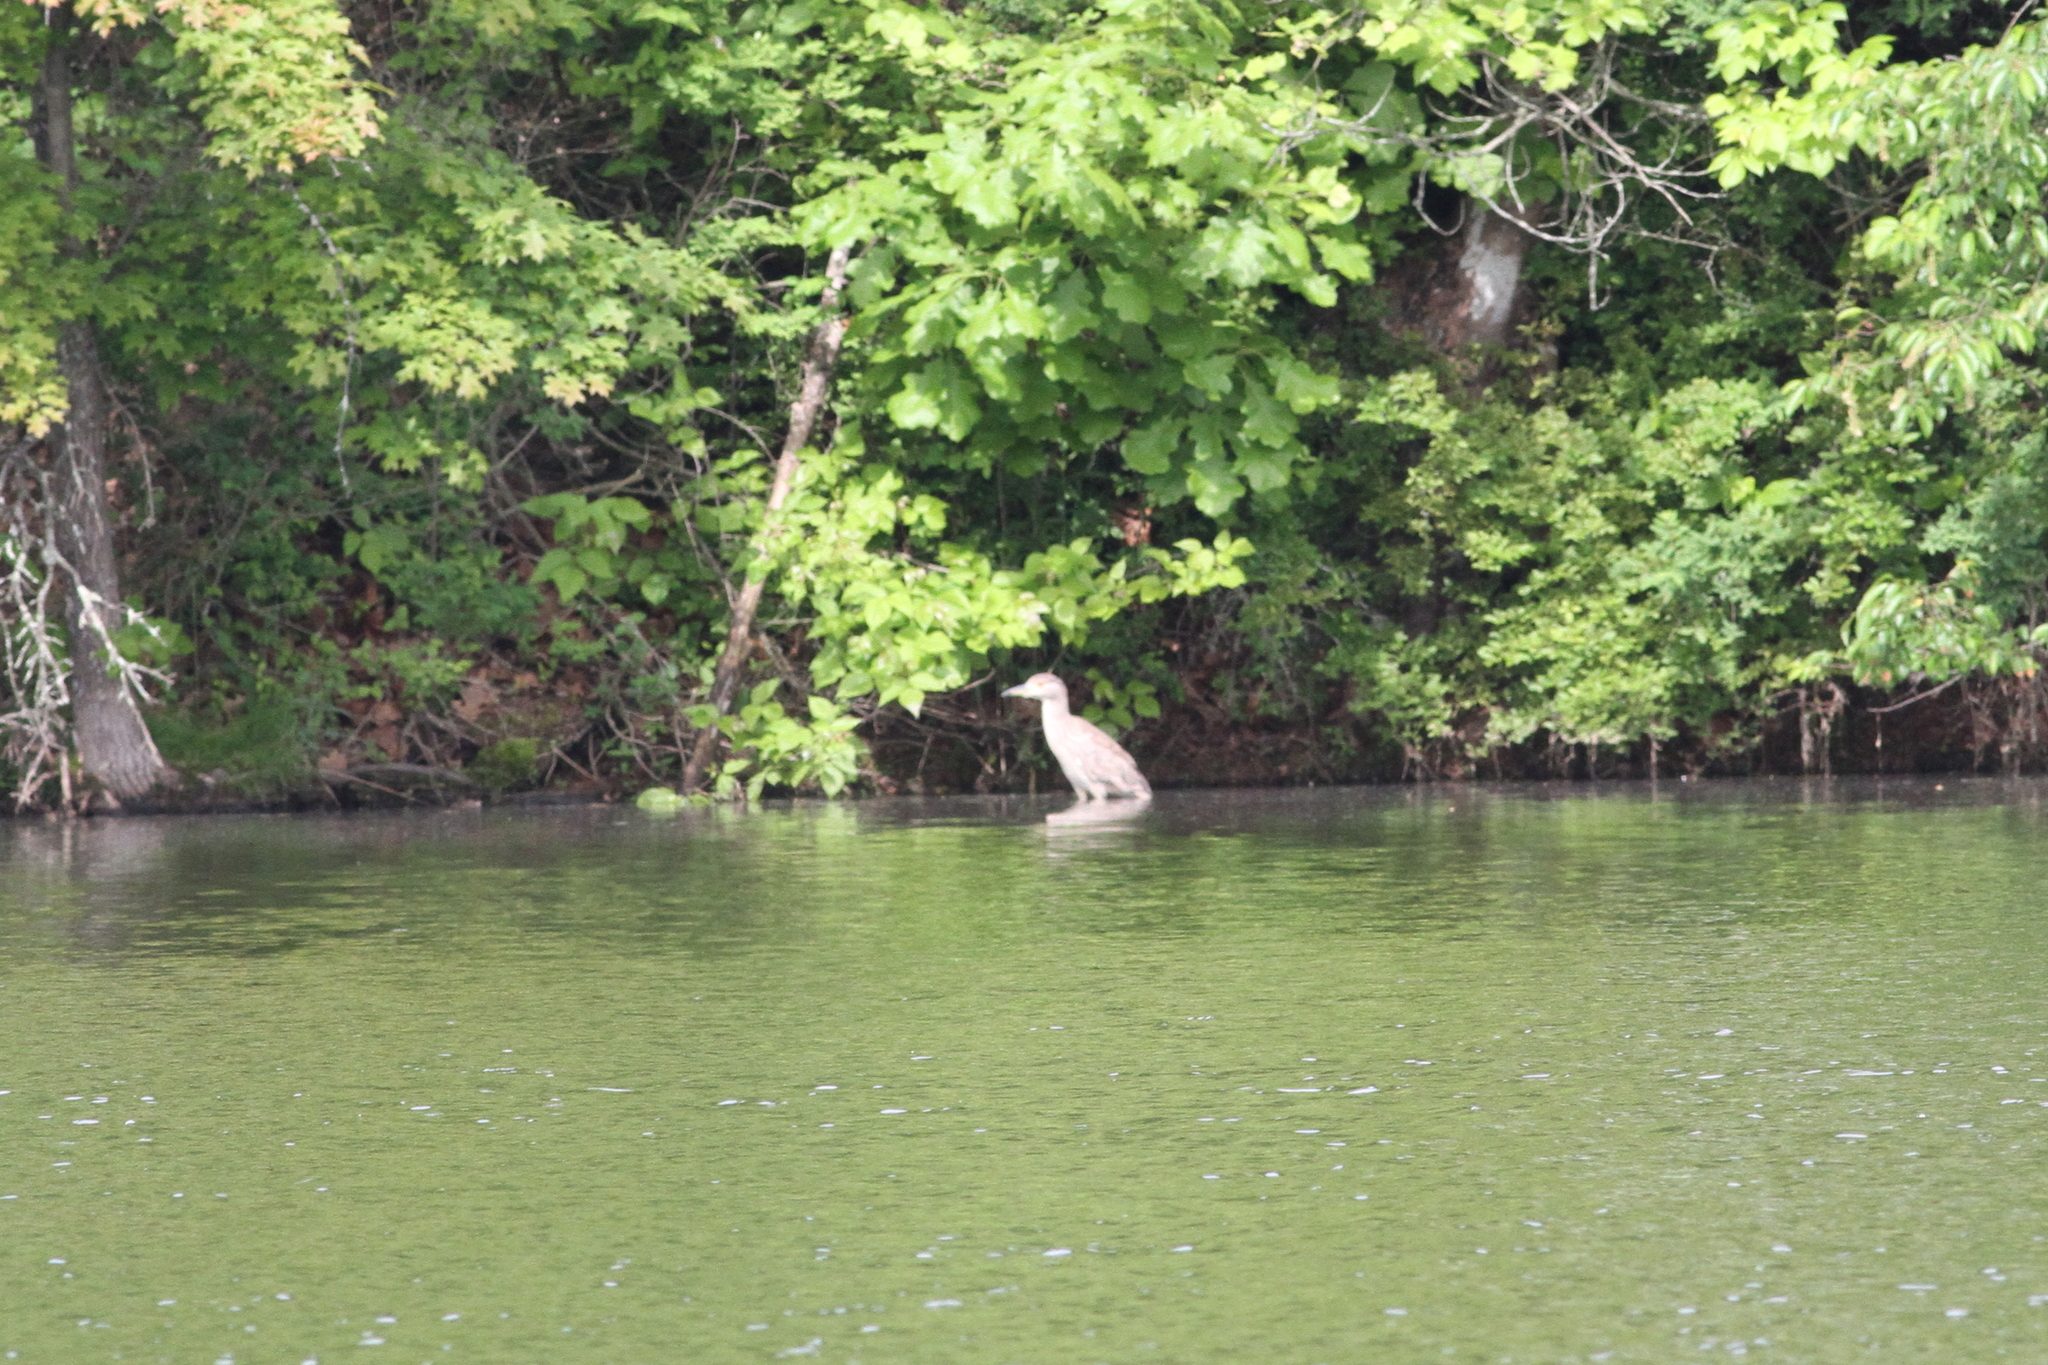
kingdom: Animalia
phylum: Chordata
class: Aves
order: Pelecaniformes
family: Ardeidae
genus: Nycticorax
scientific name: Nycticorax nycticorax
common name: Black-crowned night heron
